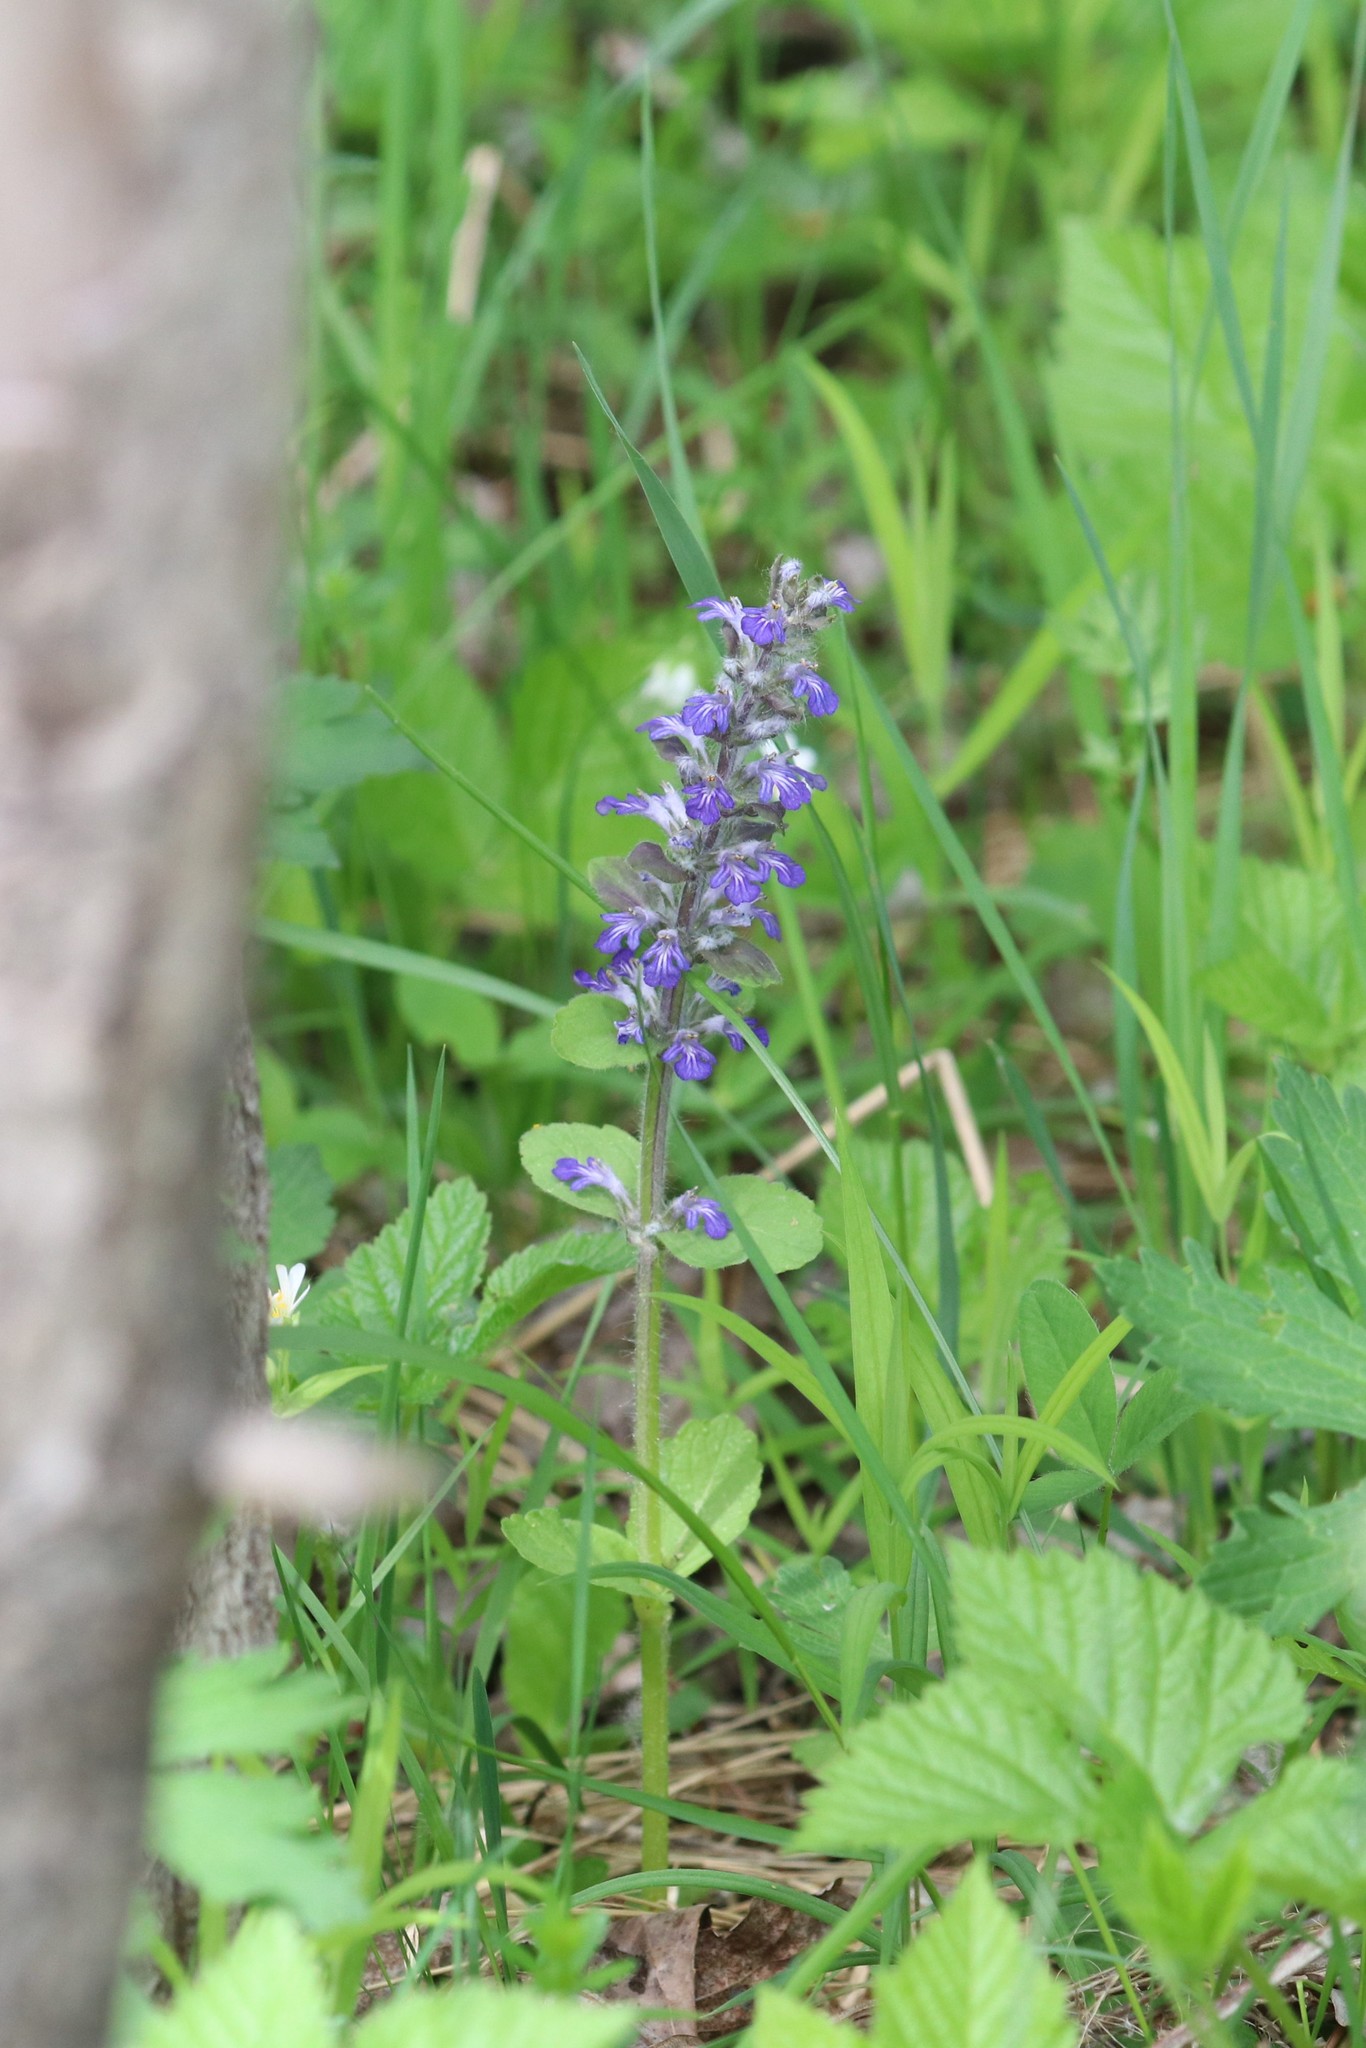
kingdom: Plantae
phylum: Tracheophyta
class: Magnoliopsida
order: Lamiales
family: Lamiaceae
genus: Ajuga
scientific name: Ajuga reptans
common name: Bugle
